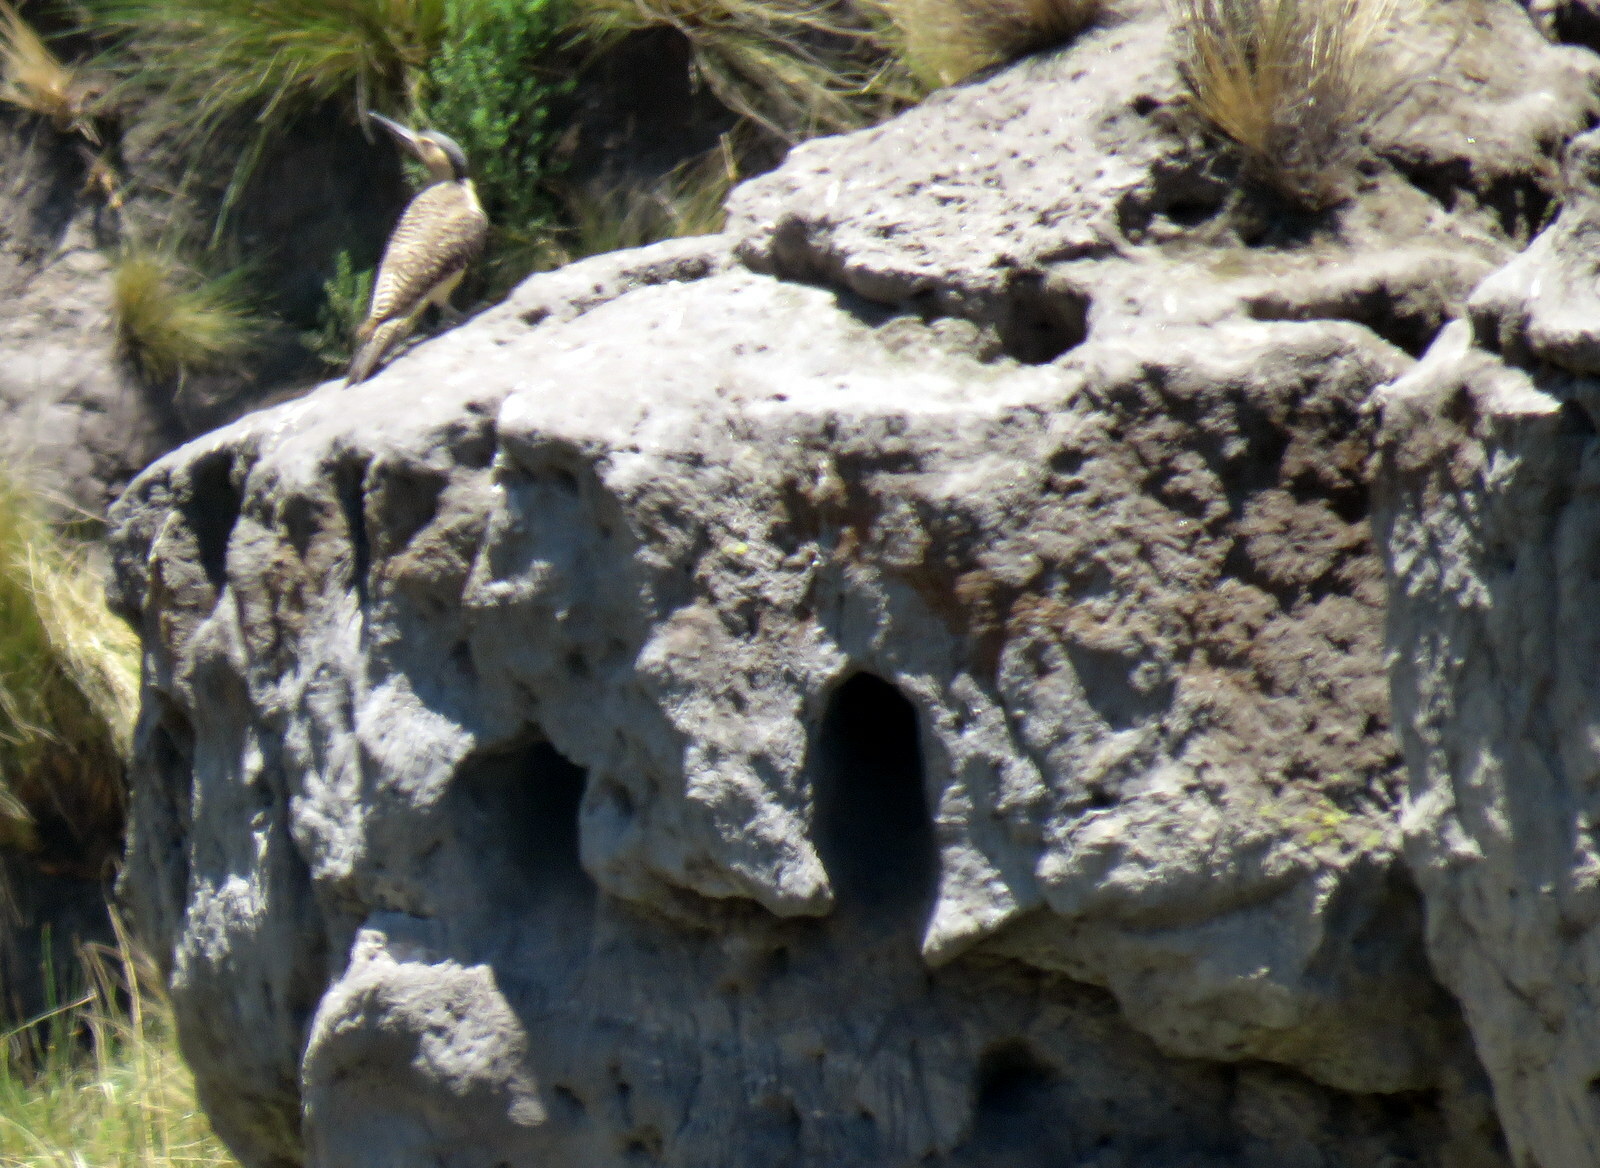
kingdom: Animalia
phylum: Chordata
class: Aves
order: Piciformes
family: Picidae
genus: Colaptes
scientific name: Colaptes rupicola
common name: Andean flicker
